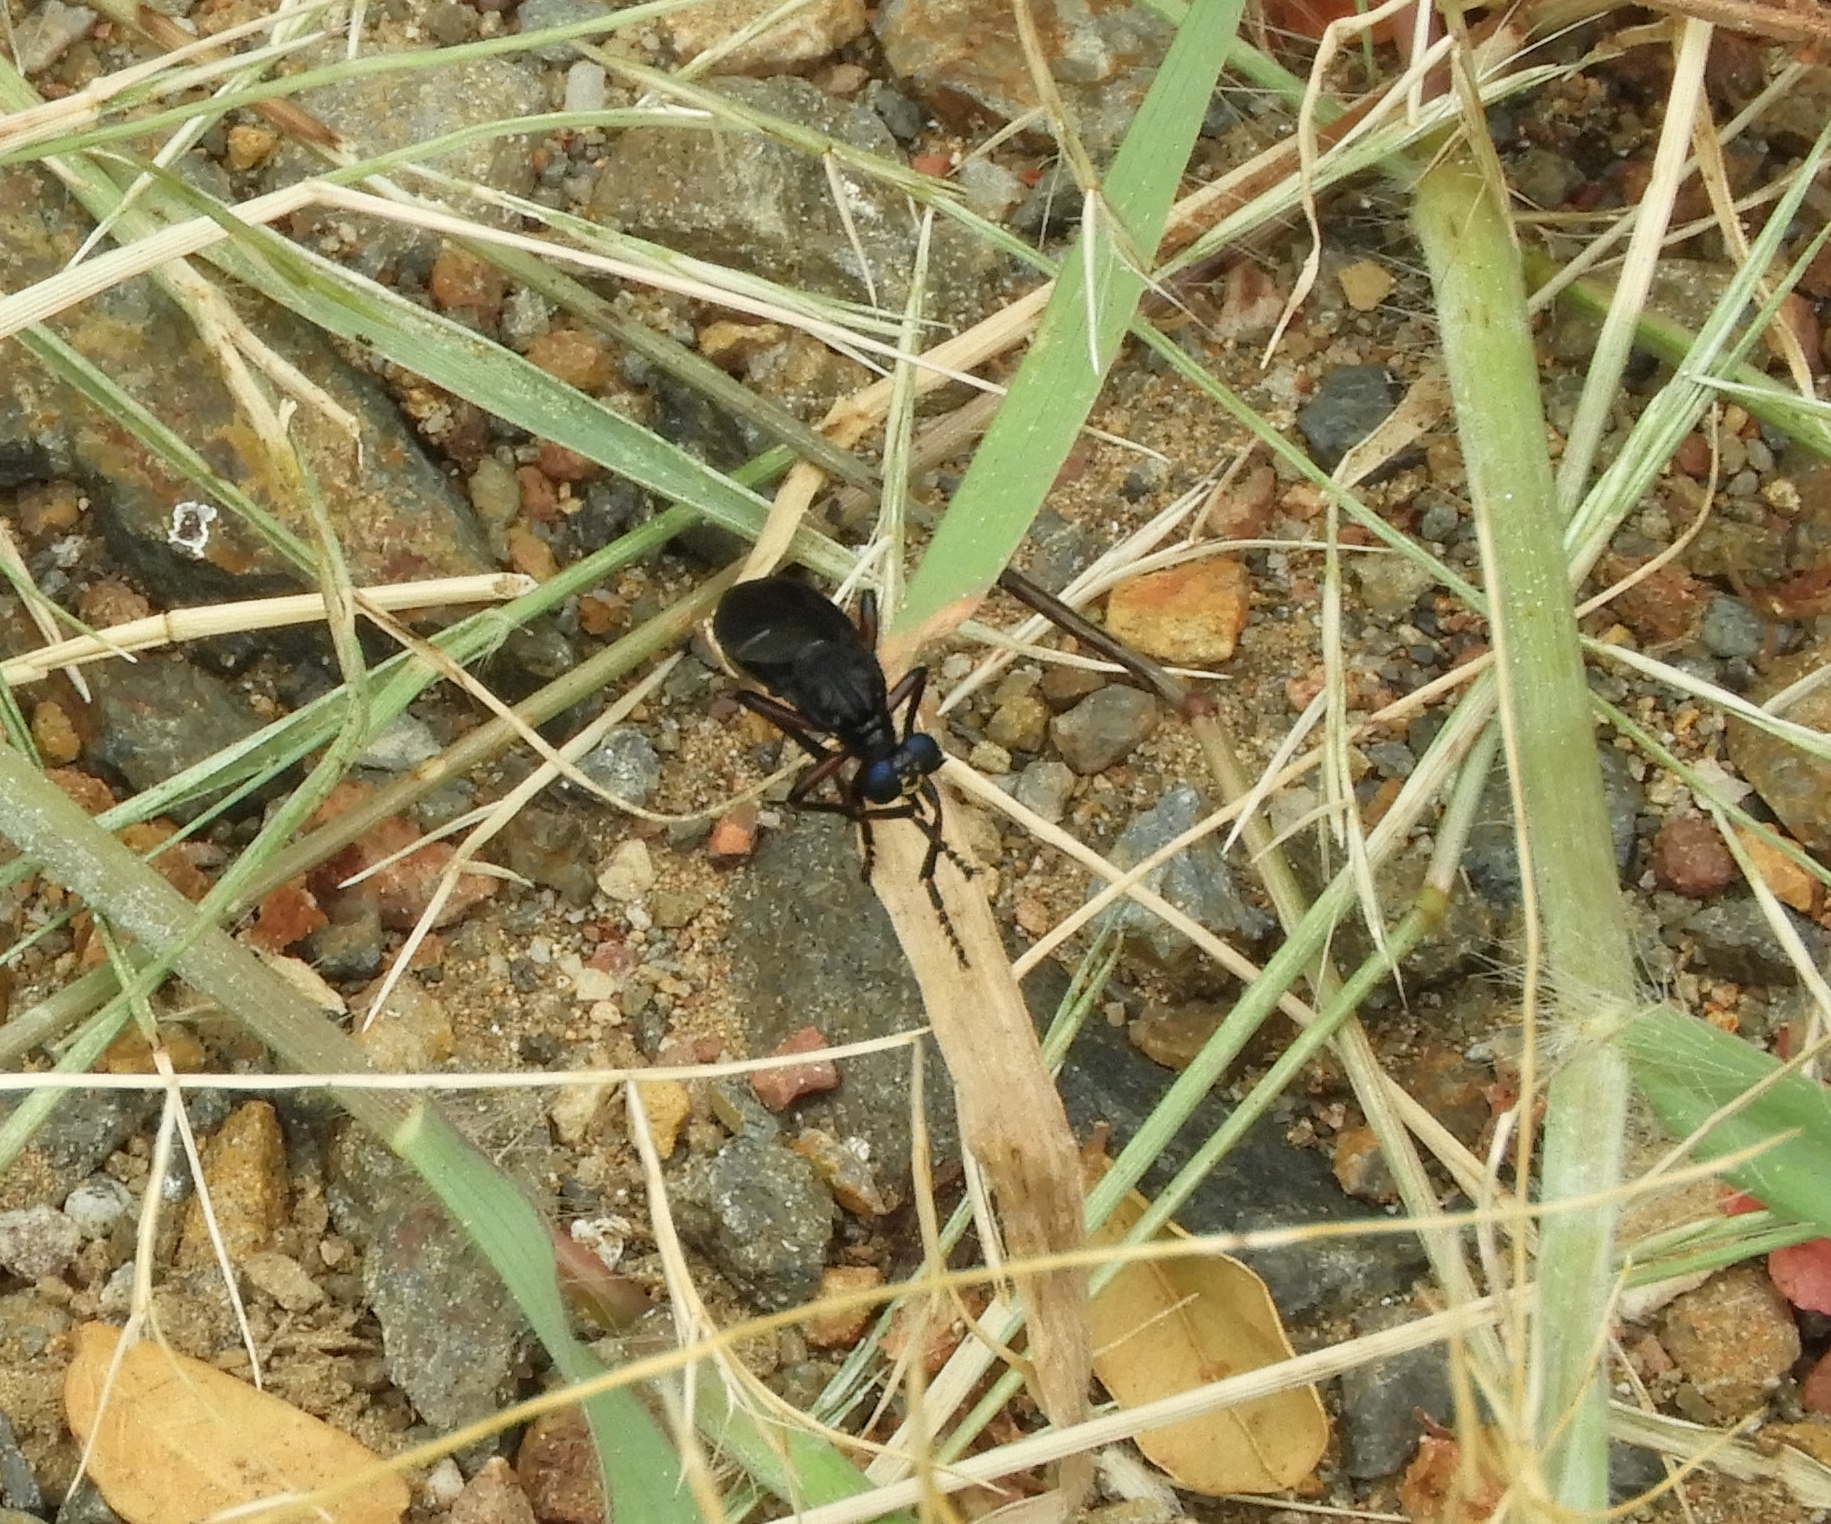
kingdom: Animalia
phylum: Arthropoda
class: Insecta
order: Diptera
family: Asilidae
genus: Saropogon
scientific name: Saropogon
